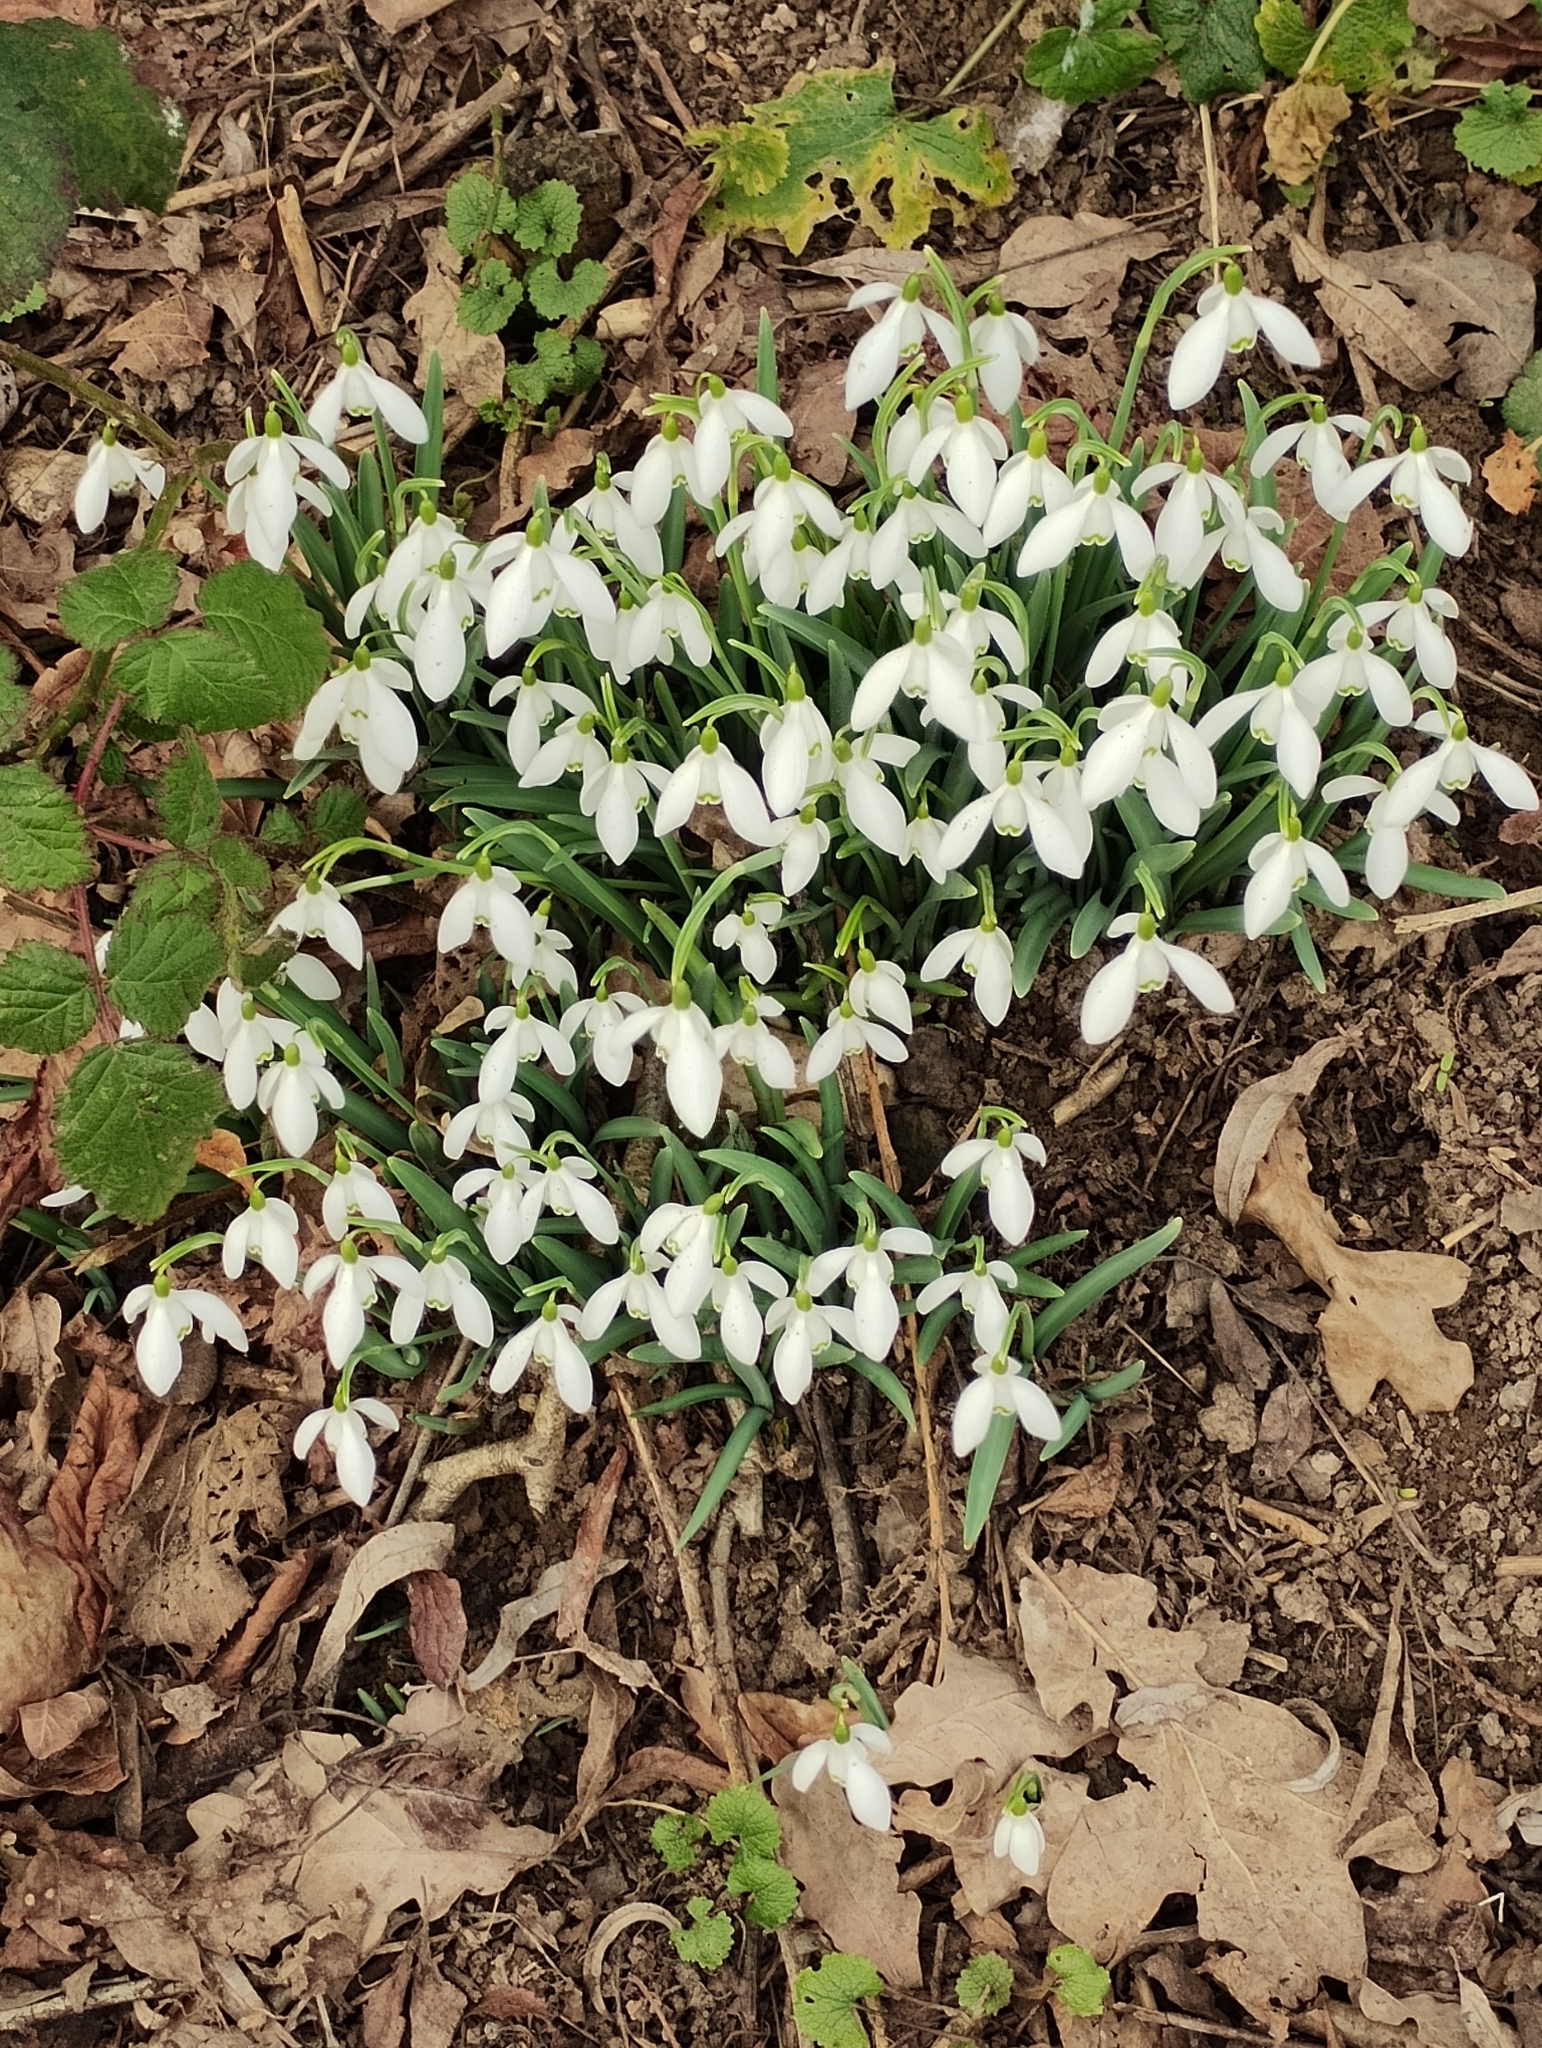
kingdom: Plantae
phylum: Tracheophyta
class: Liliopsida
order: Asparagales
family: Amaryllidaceae
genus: Galanthus
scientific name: Galanthus nivalis
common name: Snowdrop
